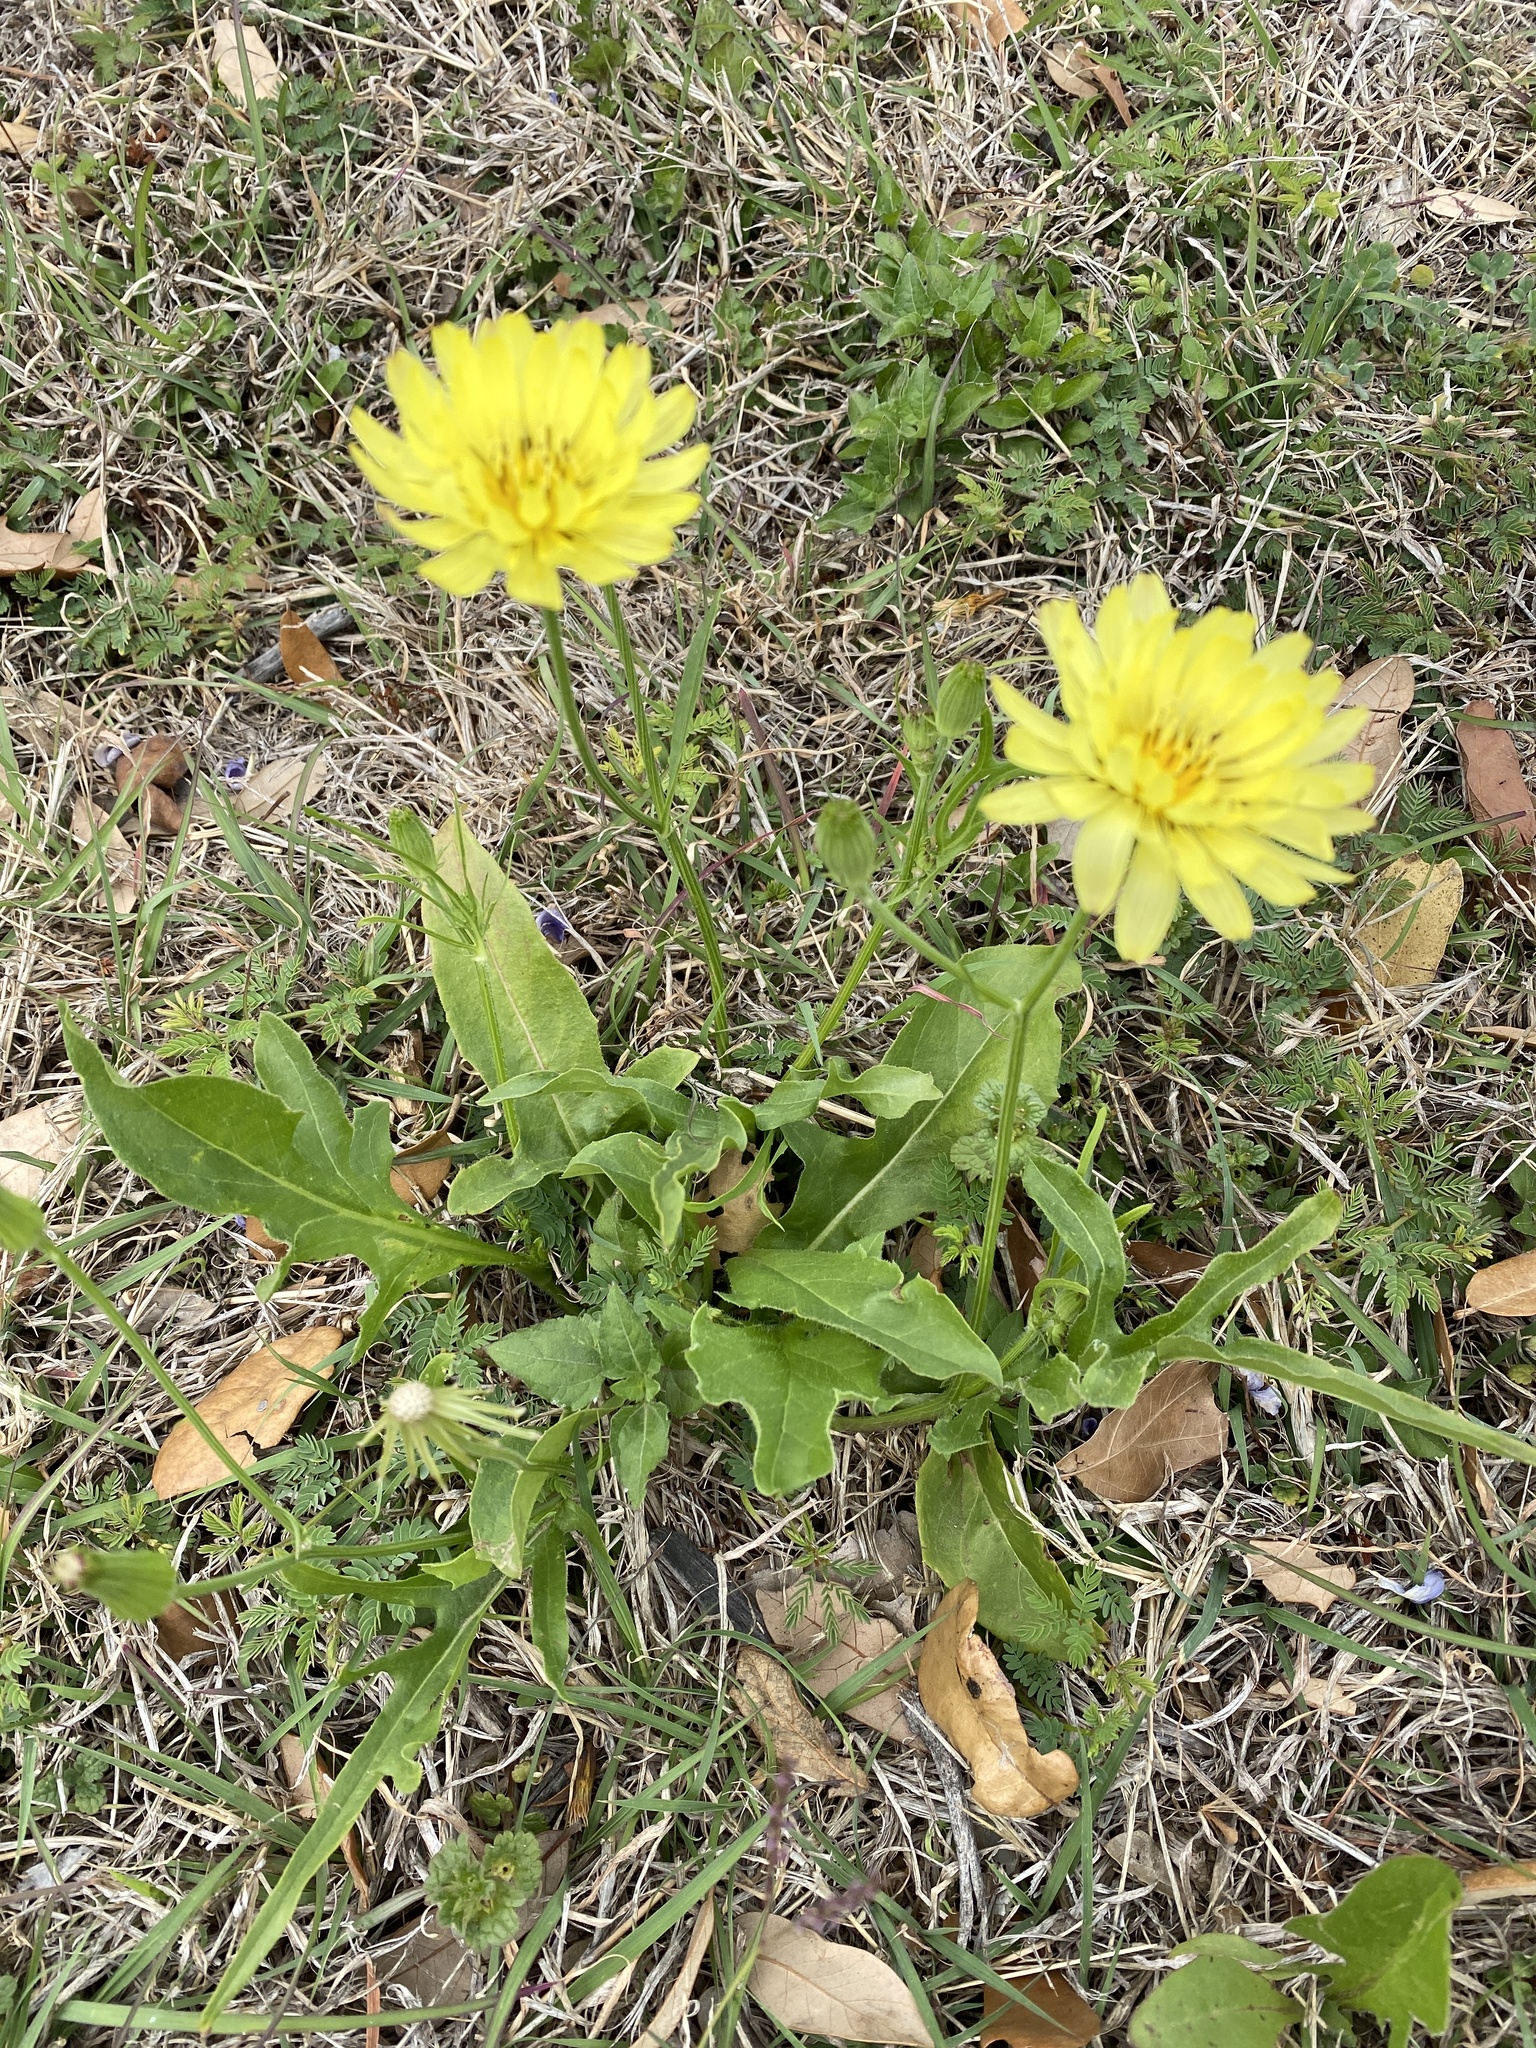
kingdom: Plantae
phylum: Tracheophyta
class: Magnoliopsida
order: Asterales
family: Asteraceae
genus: Pyrrhopappus
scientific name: Pyrrhopappus pauciflorus
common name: Texas false dandelion
